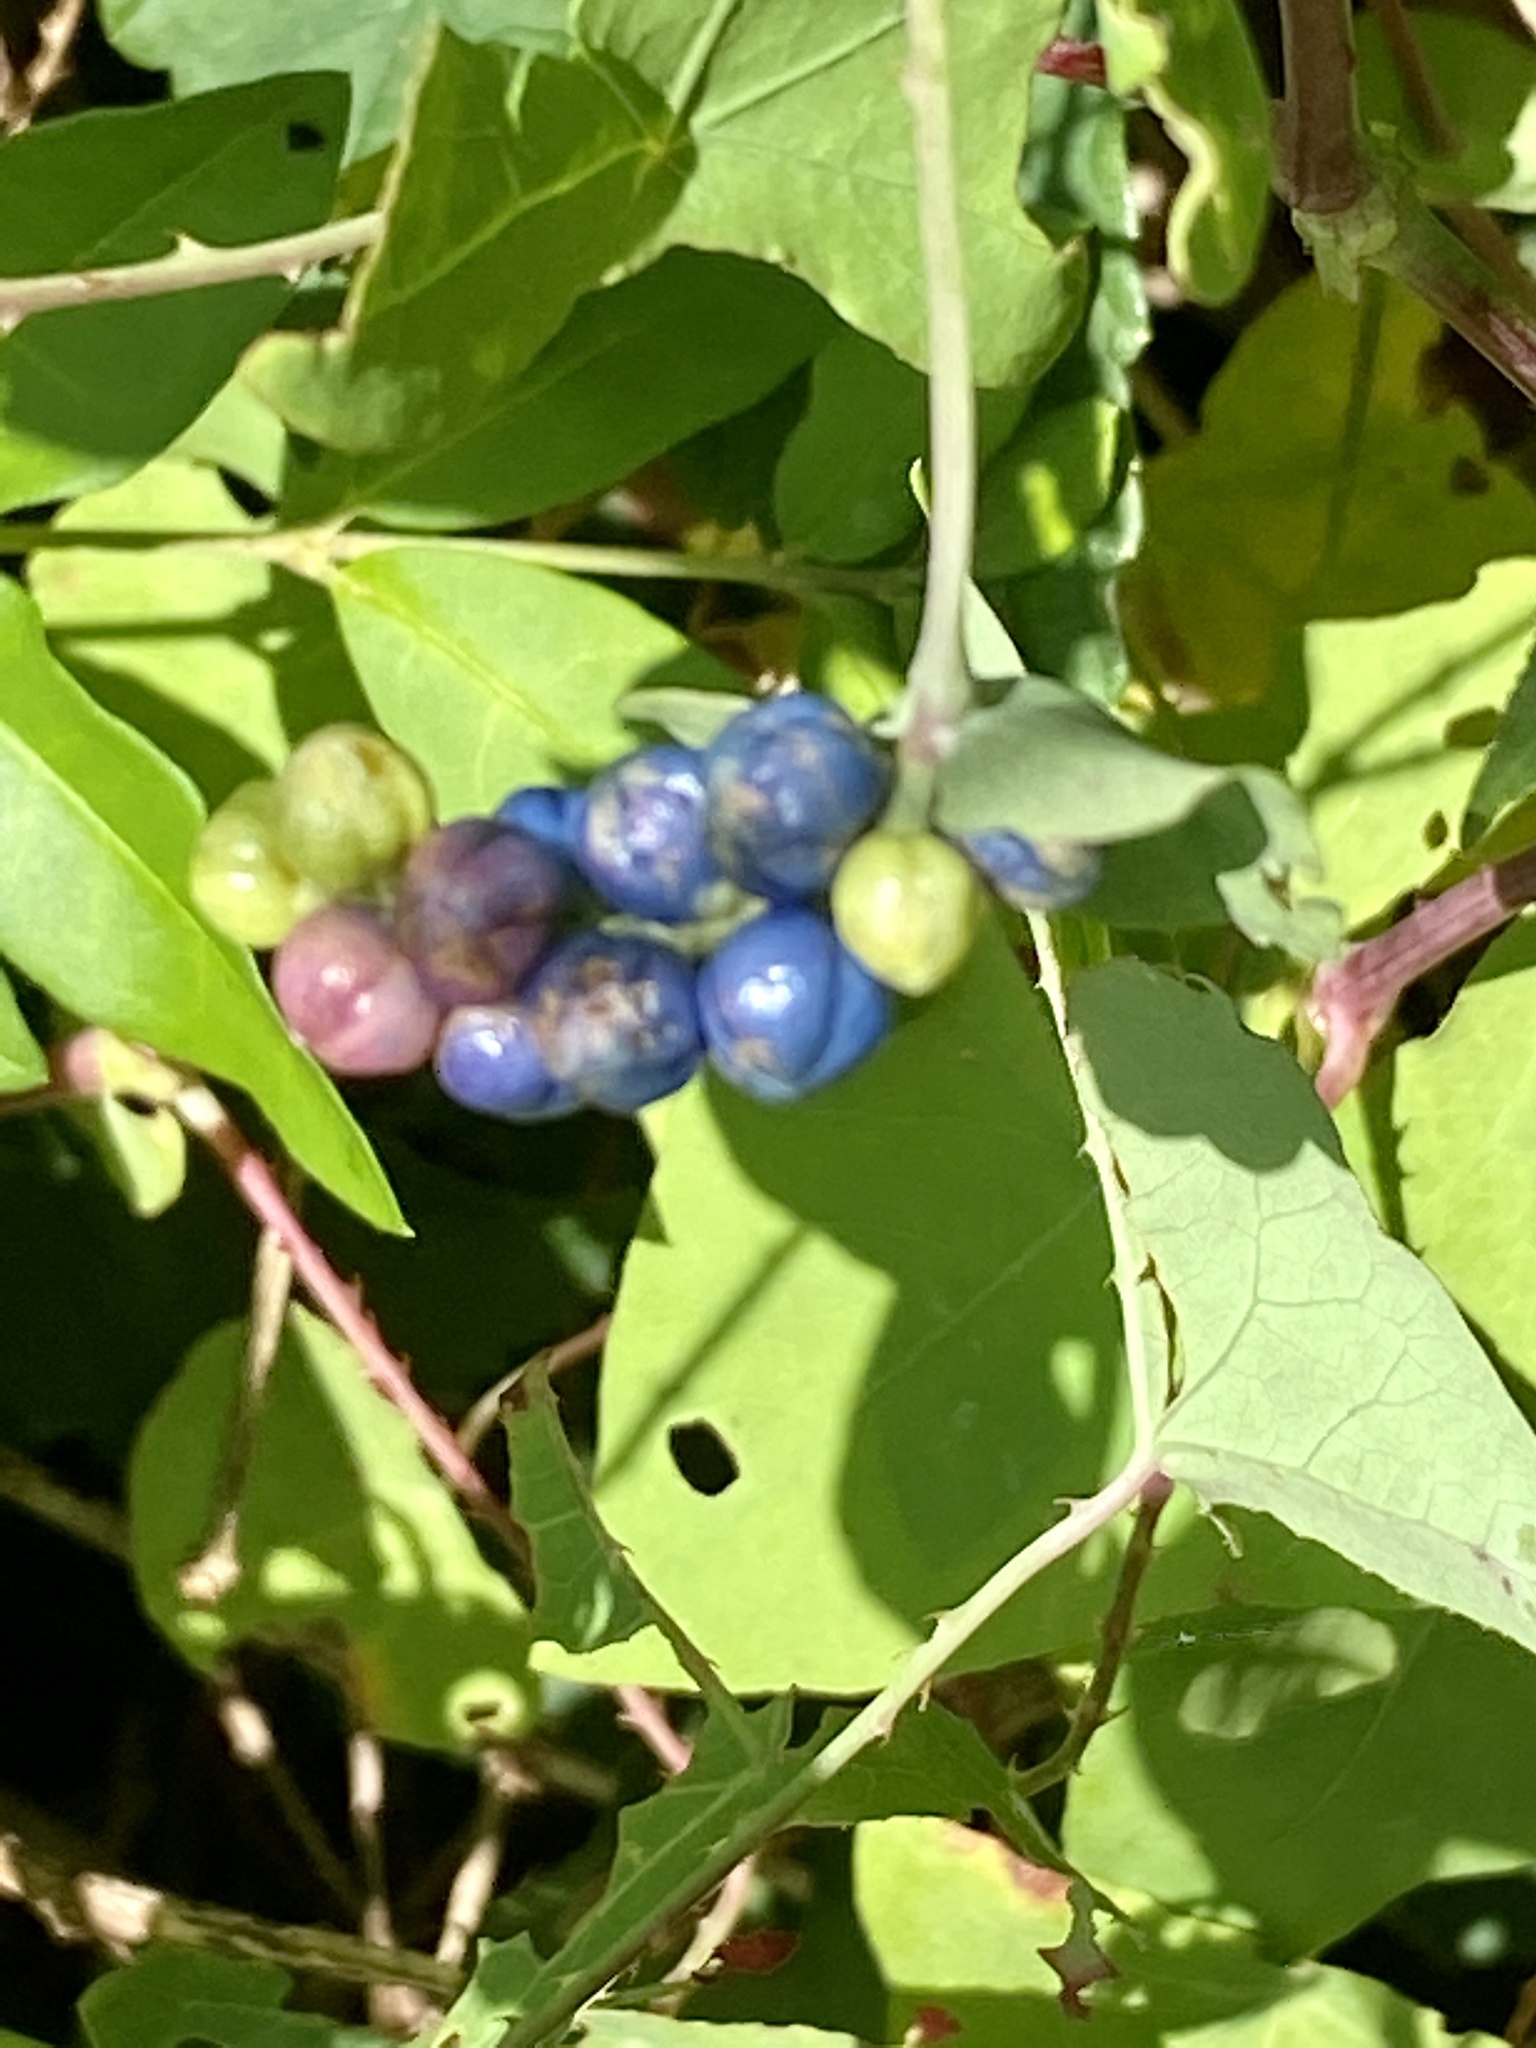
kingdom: Plantae
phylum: Tracheophyta
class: Magnoliopsida
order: Caryophyllales
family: Polygonaceae
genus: Persicaria
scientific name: Persicaria perfoliata
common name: Asiatic tearthumb
